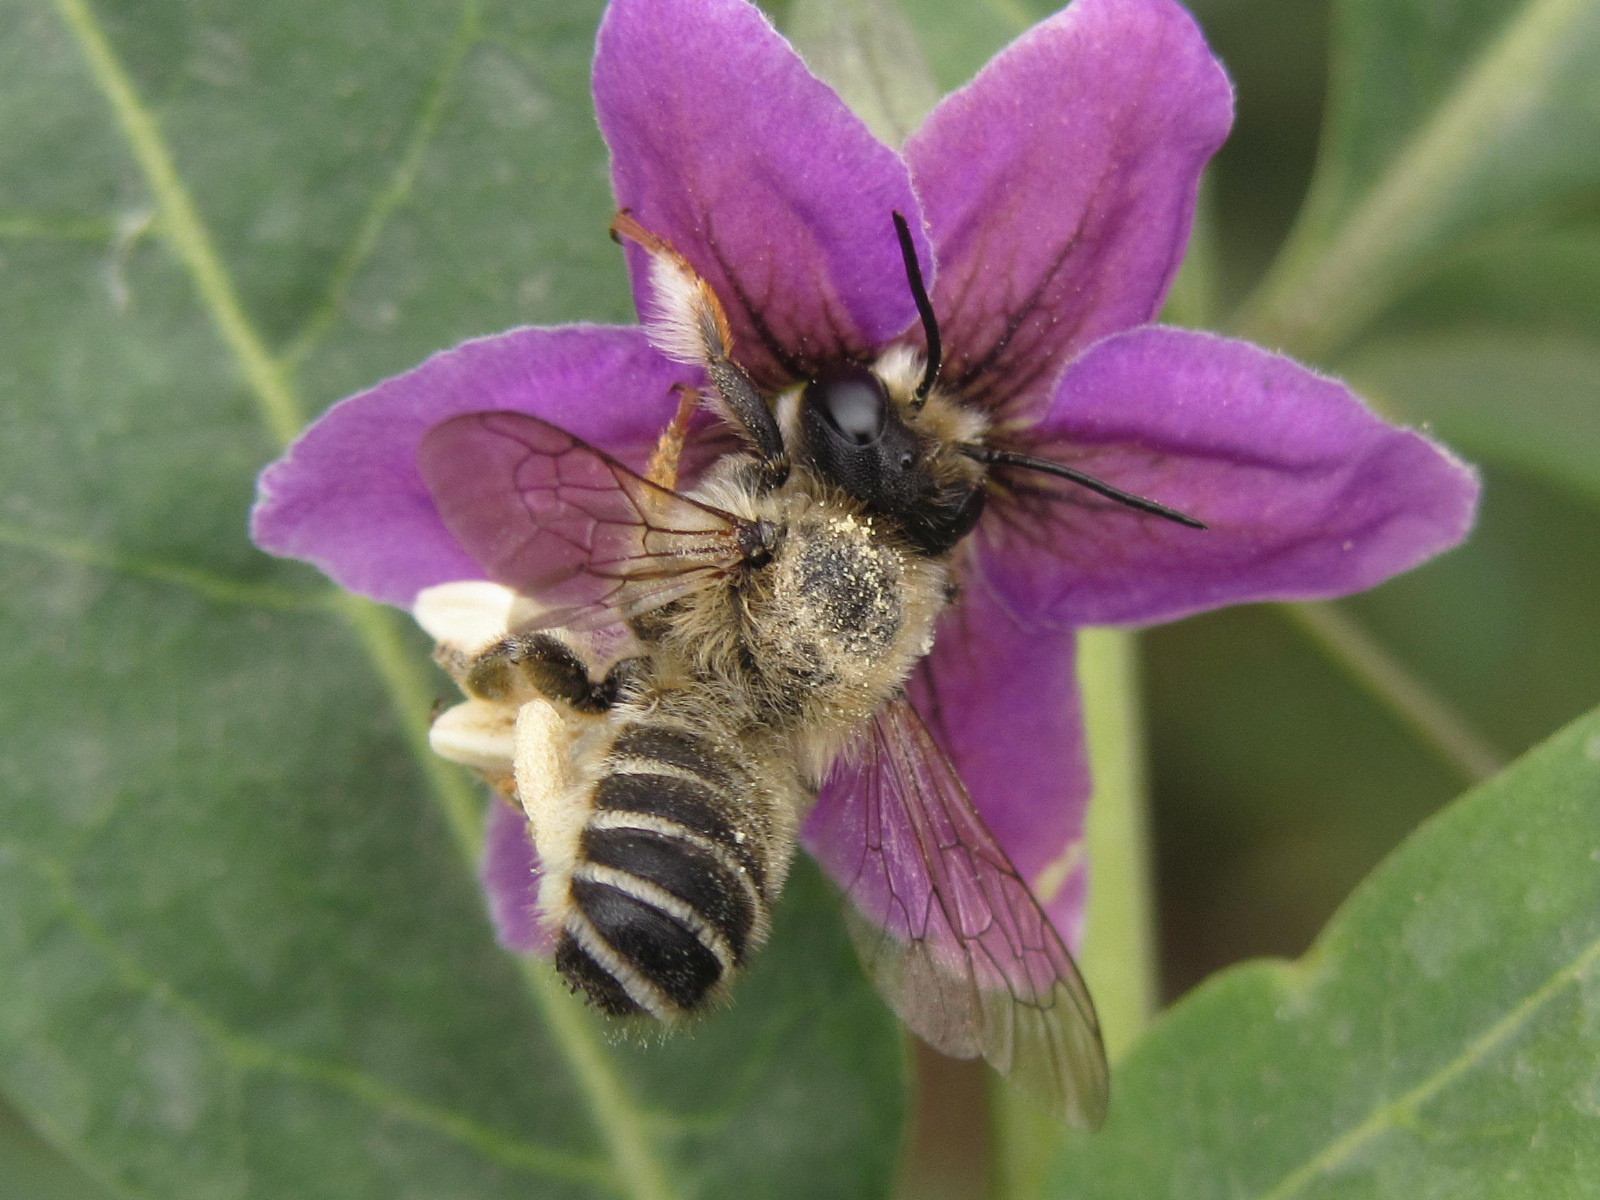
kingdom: Animalia
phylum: Arthropoda
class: Insecta
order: Hymenoptera
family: Megachilidae
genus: Megachile
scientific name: Megachile ericetorum
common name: Leafcutter bee
